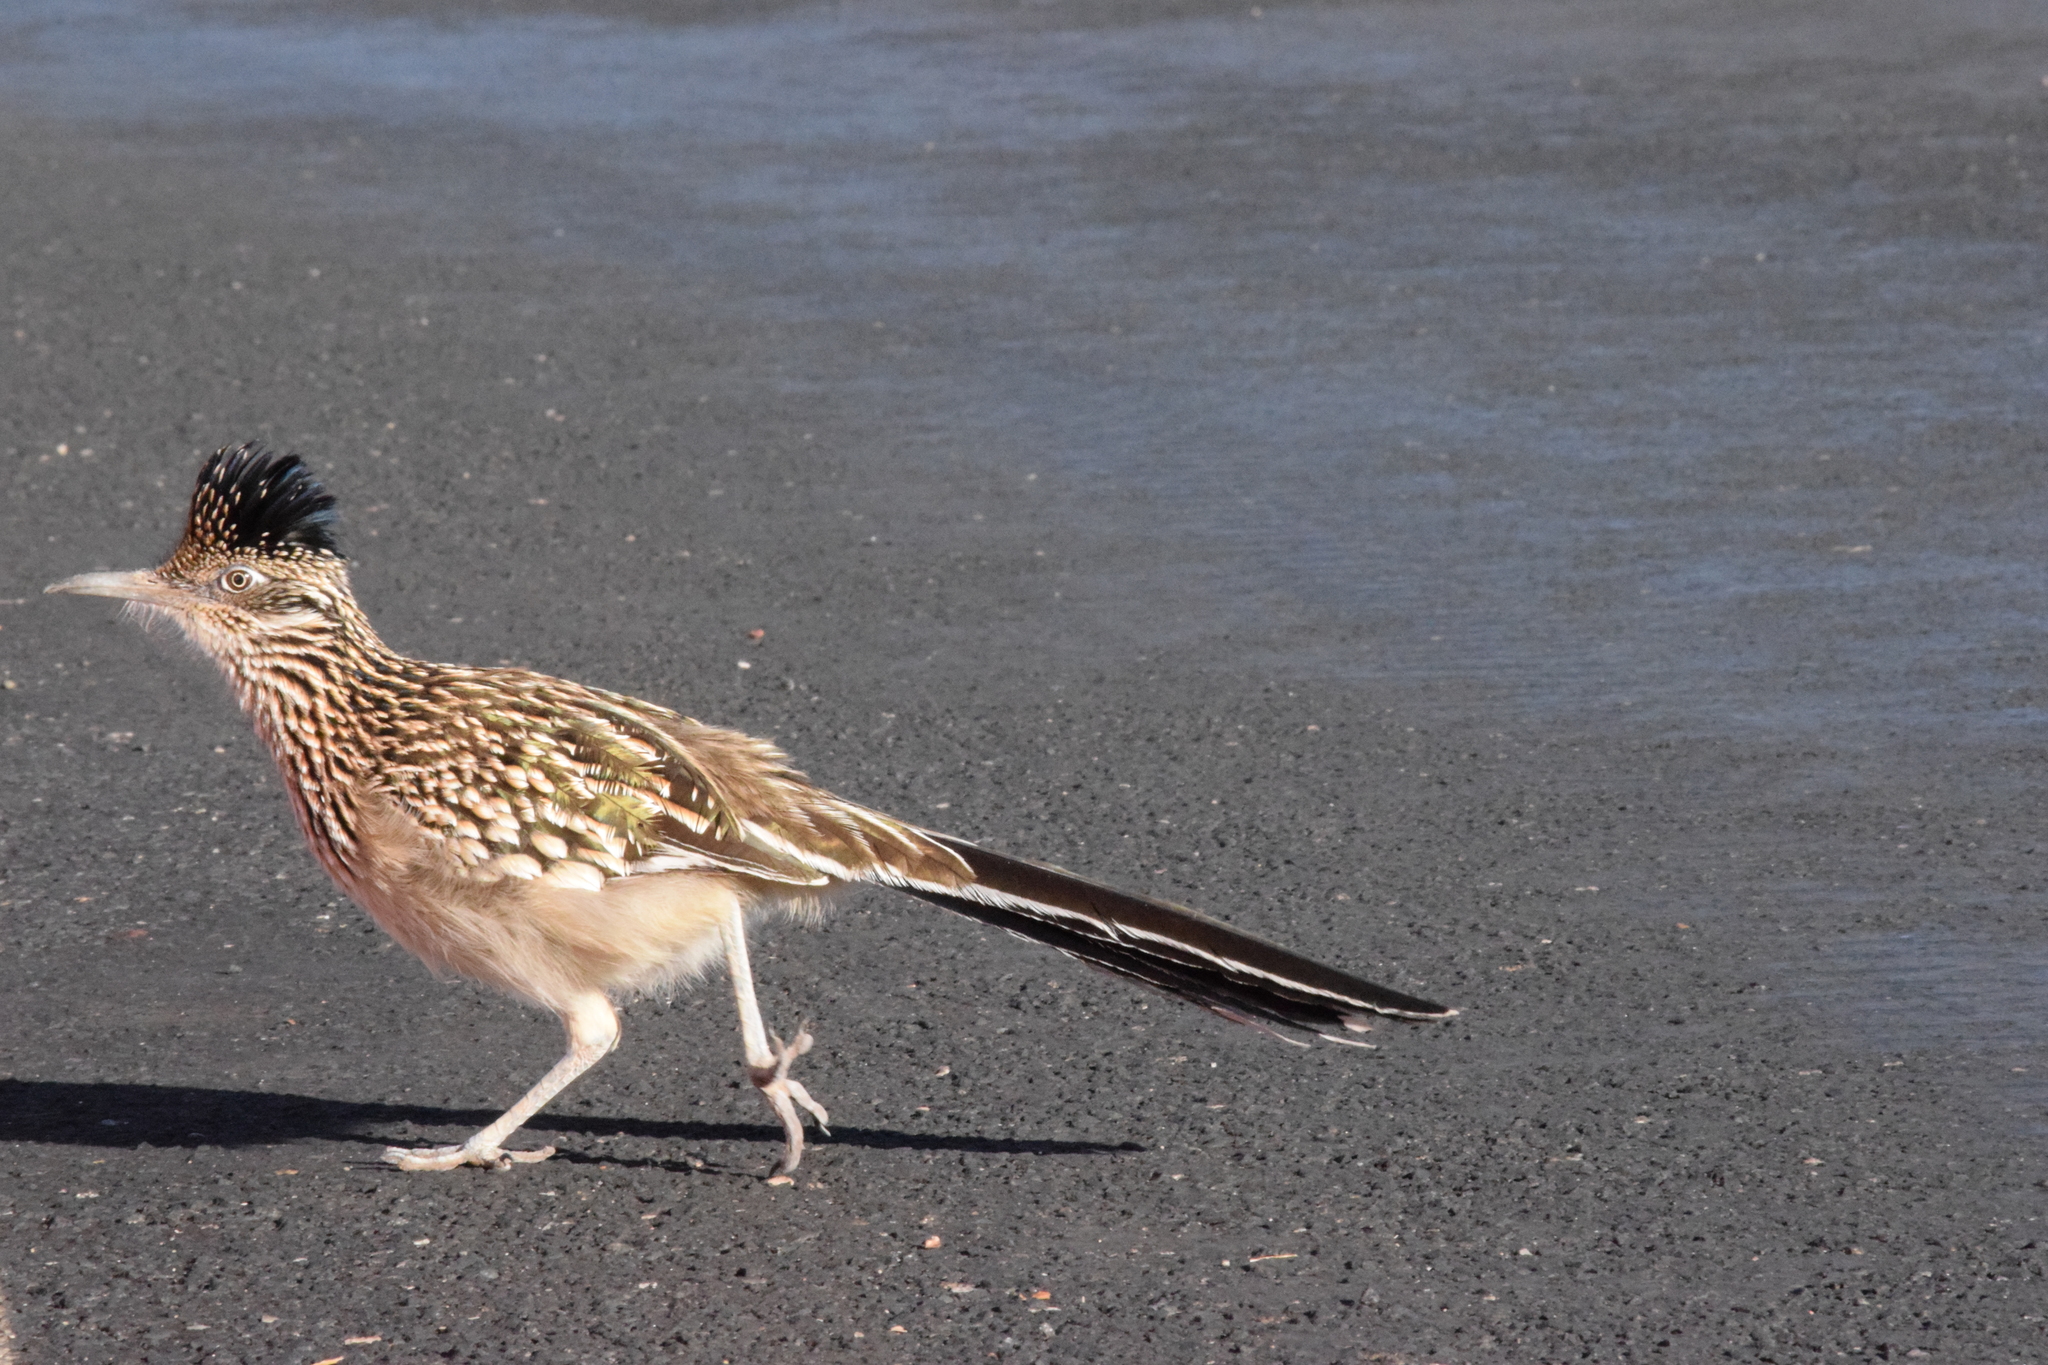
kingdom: Animalia
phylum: Chordata
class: Aves
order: Cuculiformes
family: Cuculidae
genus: Geococcyx
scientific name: Geococcyx californianus
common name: Greater roadrunner
